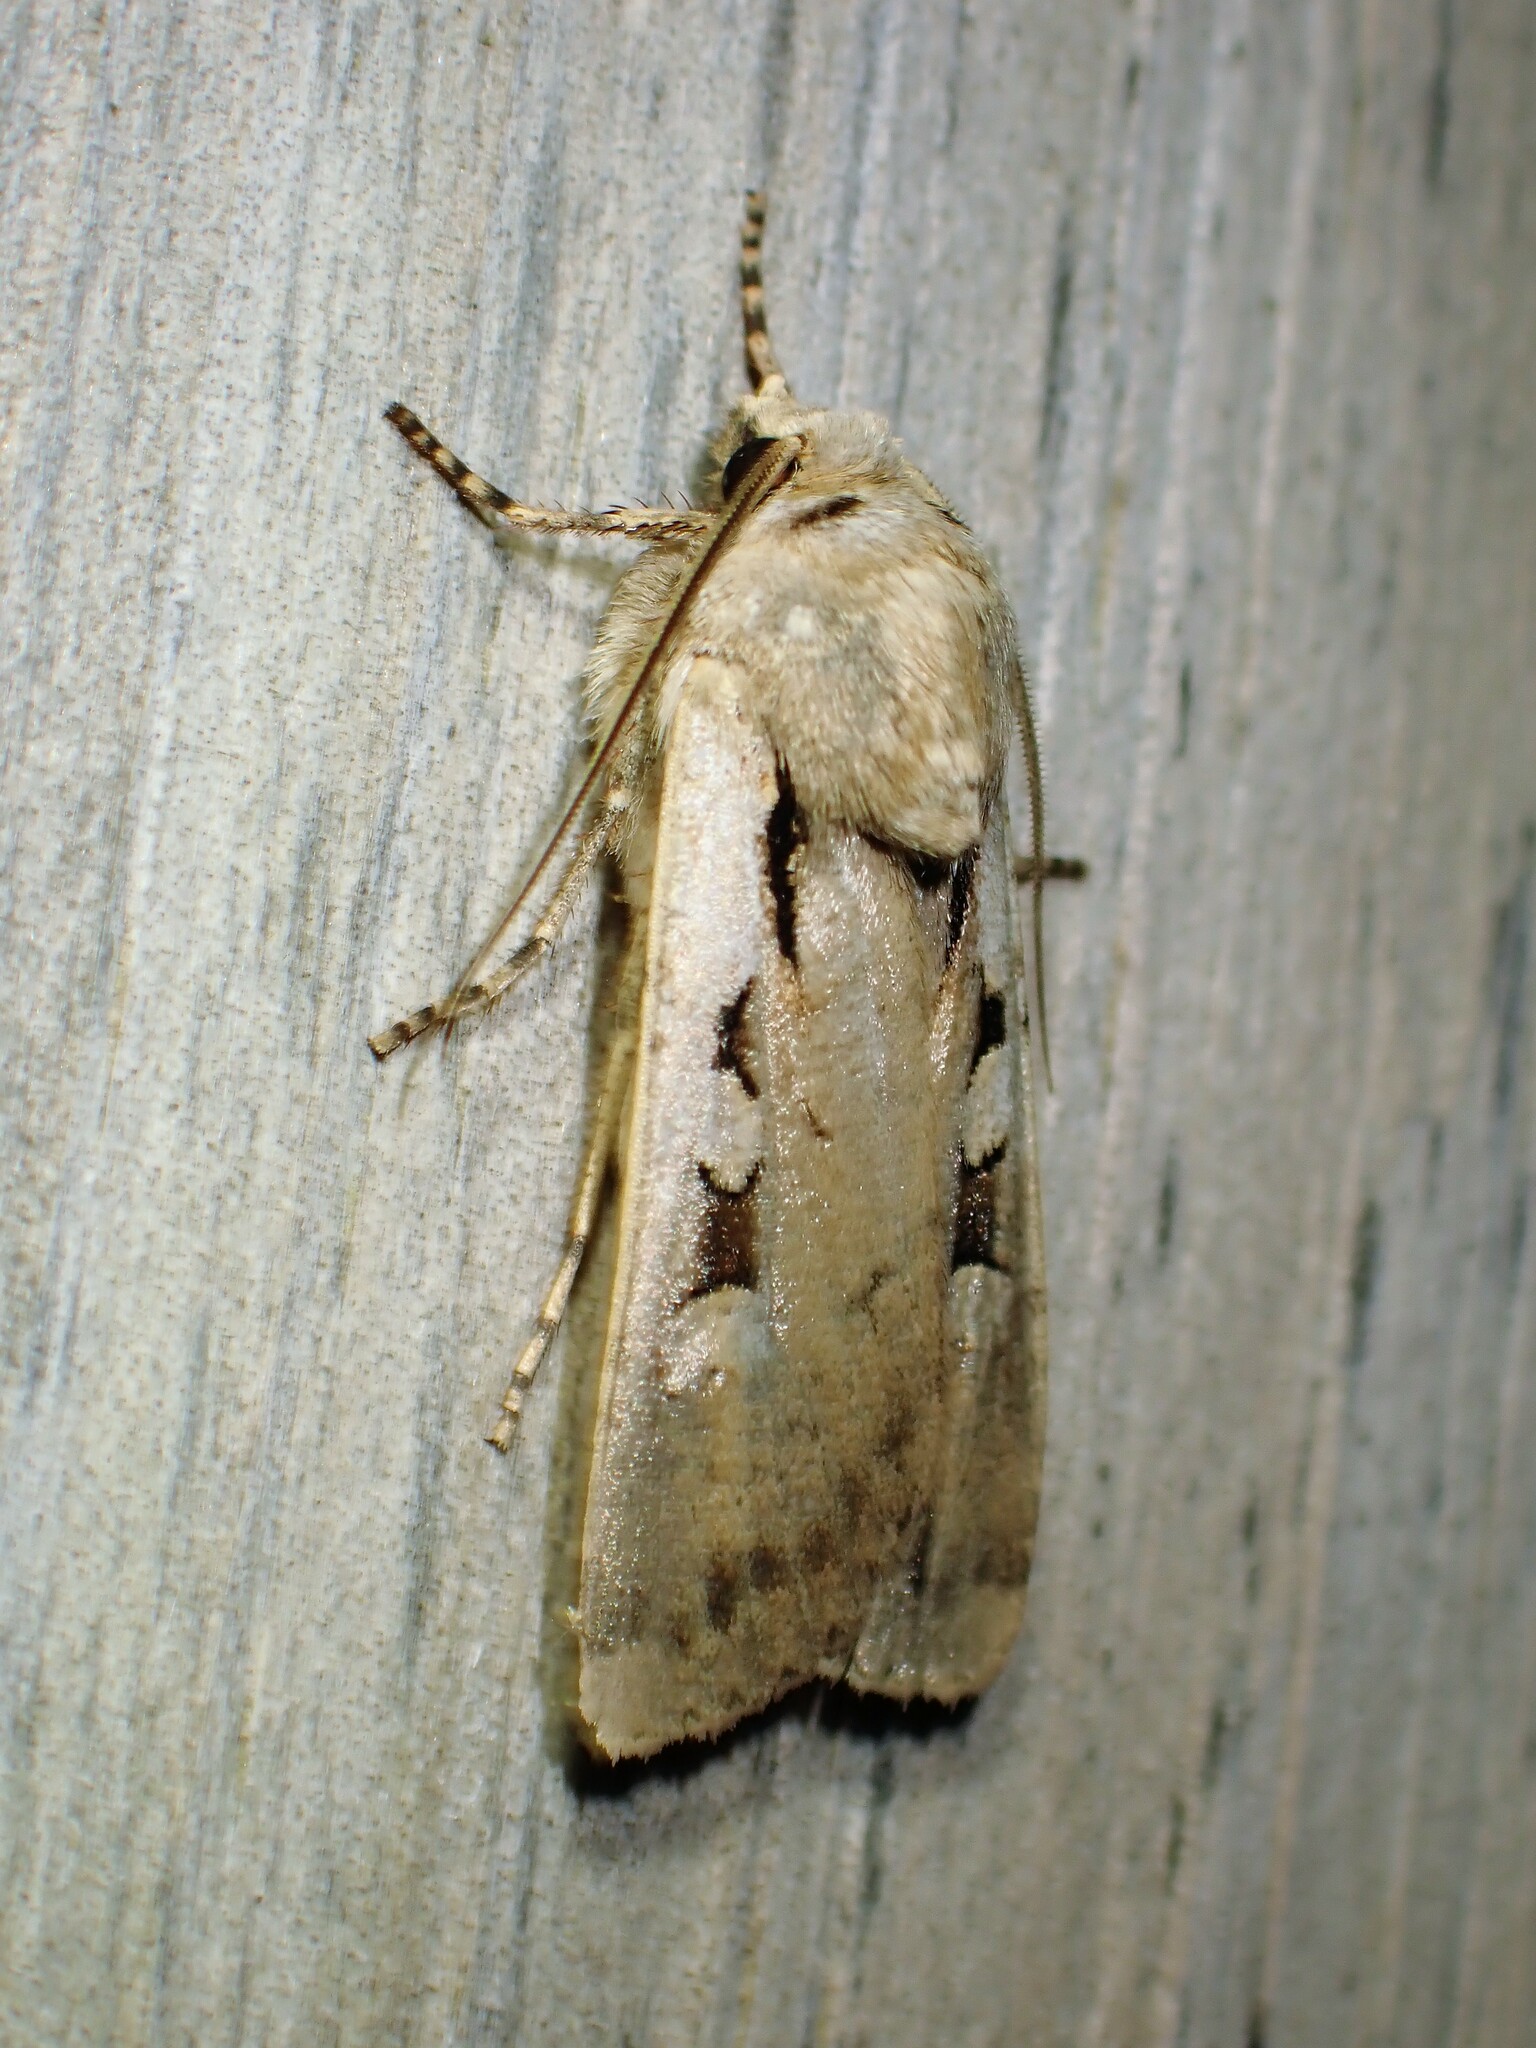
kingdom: Animalia
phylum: Arthropoda
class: Insecta
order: Lepidoptera
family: Noctuidae
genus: Euxoa
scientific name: Euxoa tristicula
